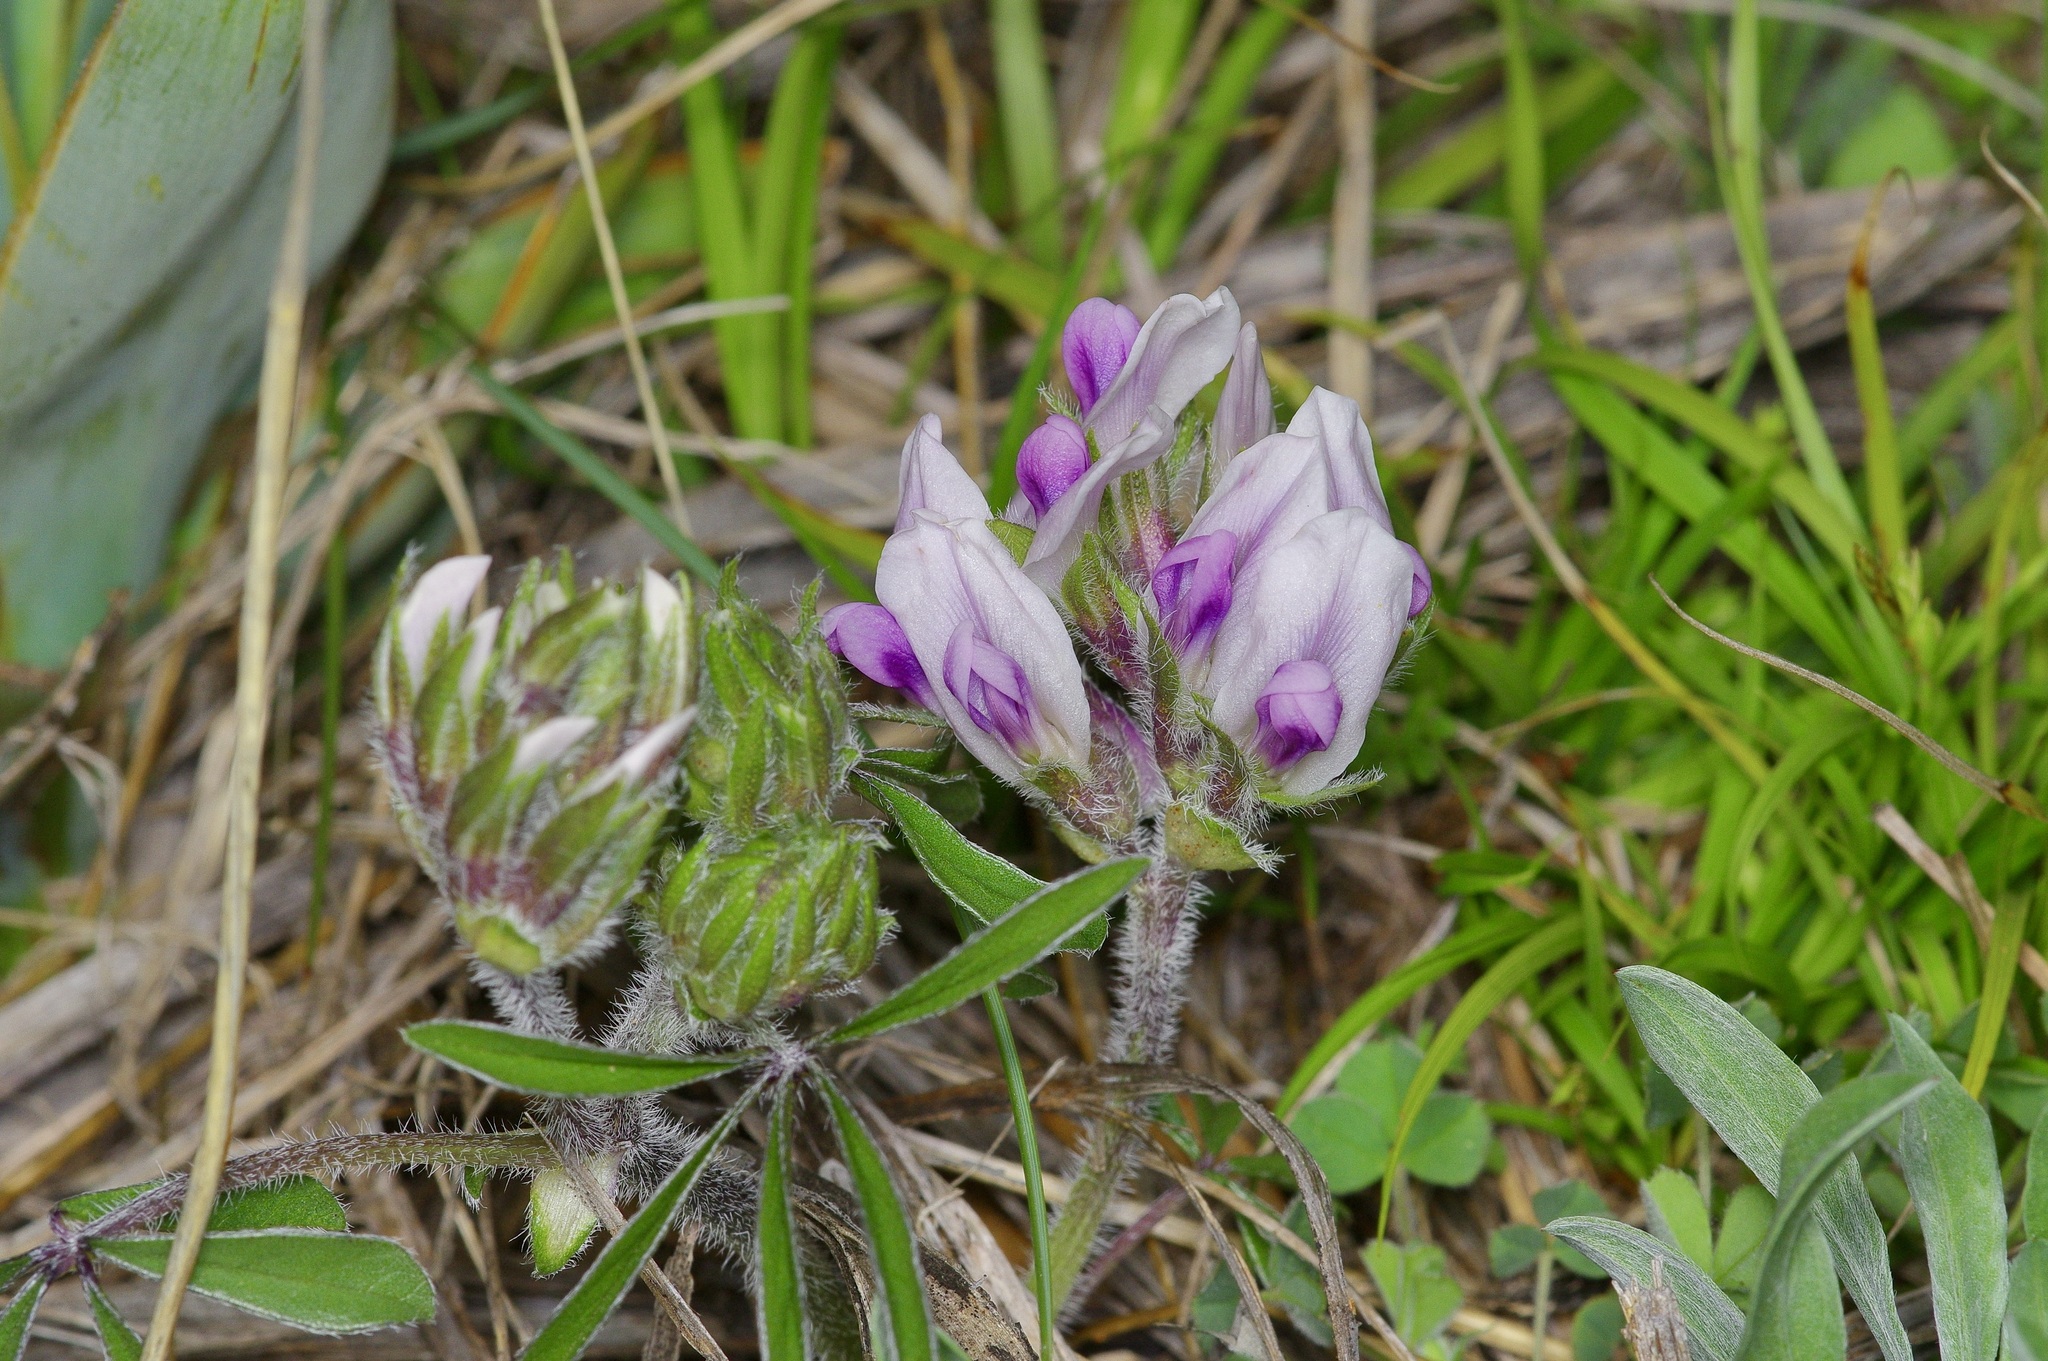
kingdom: Plantae
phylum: Tracheophyta
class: Magnoliopsida
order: Fabales
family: Fabaceae
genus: Pediomelum
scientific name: Pediomelum latestipulatum
